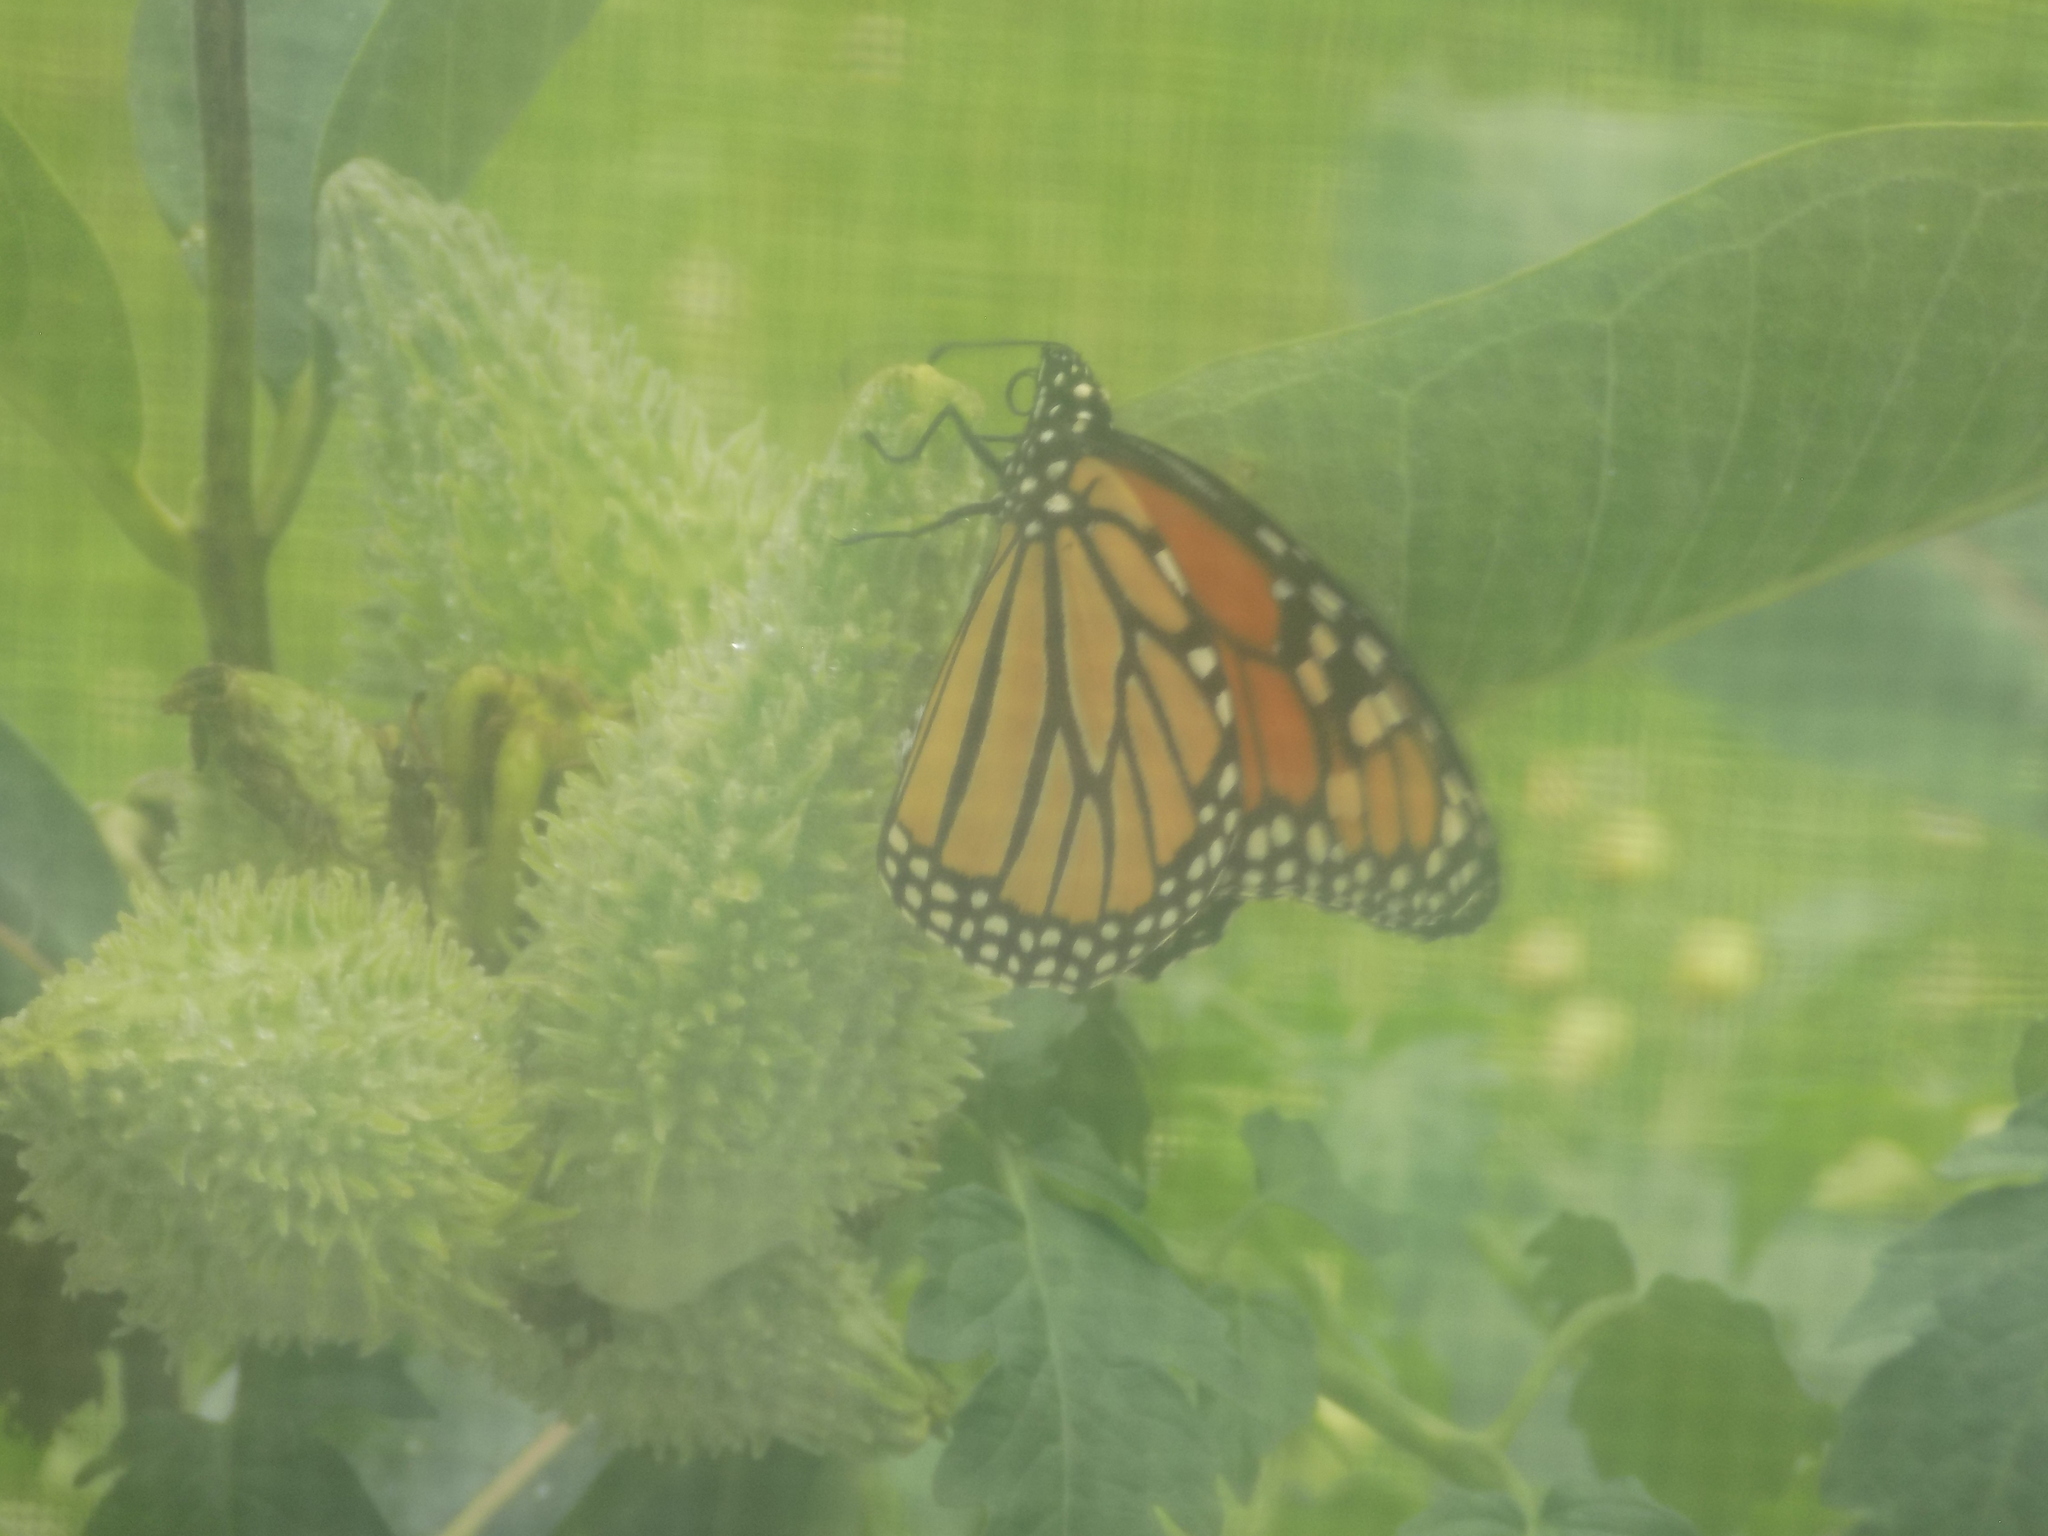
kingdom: Animalia
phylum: Arthropoda
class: Insecta
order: Lepidoptera
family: Nymphalidae
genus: Danaus
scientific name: Danaus plexippus
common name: Monarch
